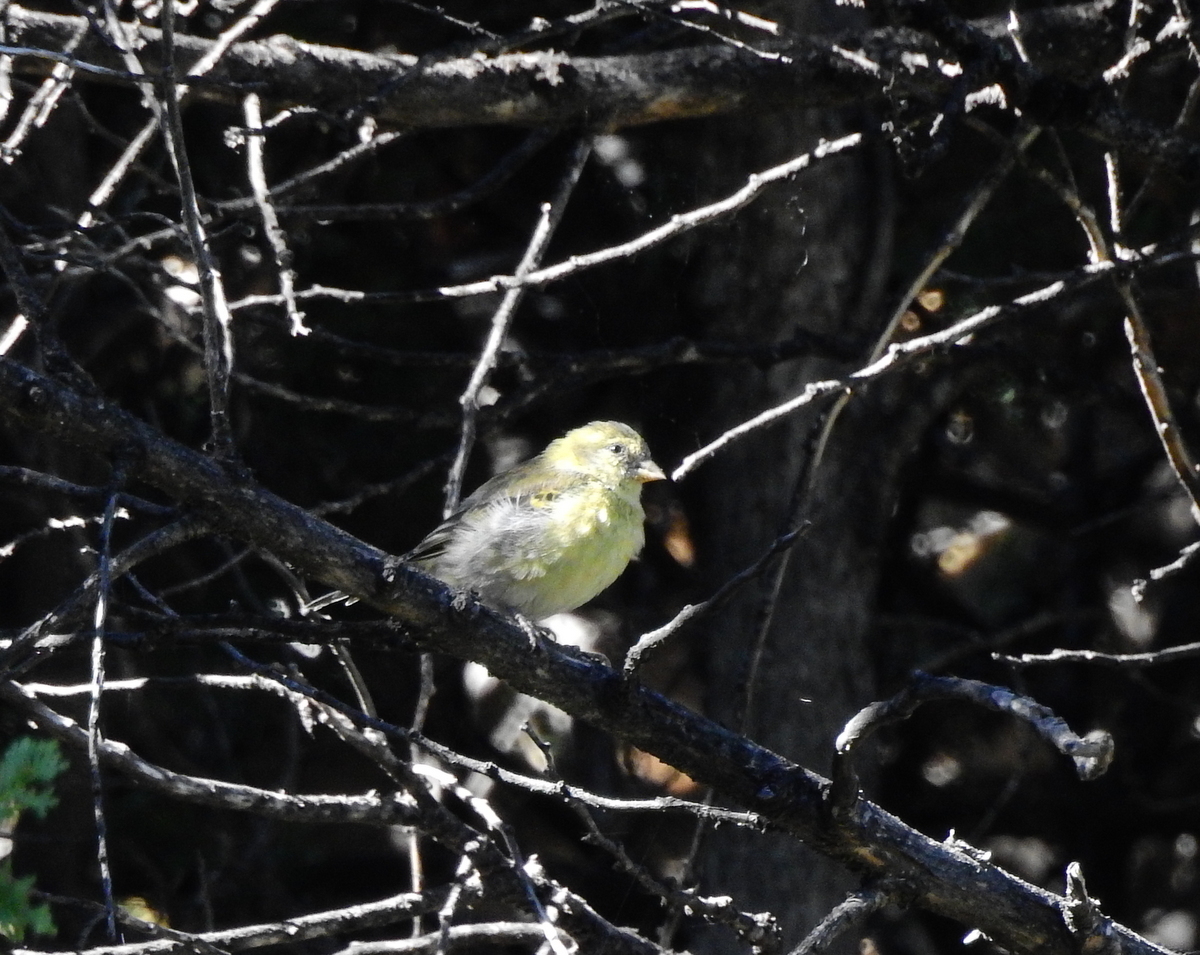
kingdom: Animalia
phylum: Chordata
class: Aves
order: Passeriformes
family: Fringillidae
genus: Spinus
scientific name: Spinus barbatus
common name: Black-chinned siskin
